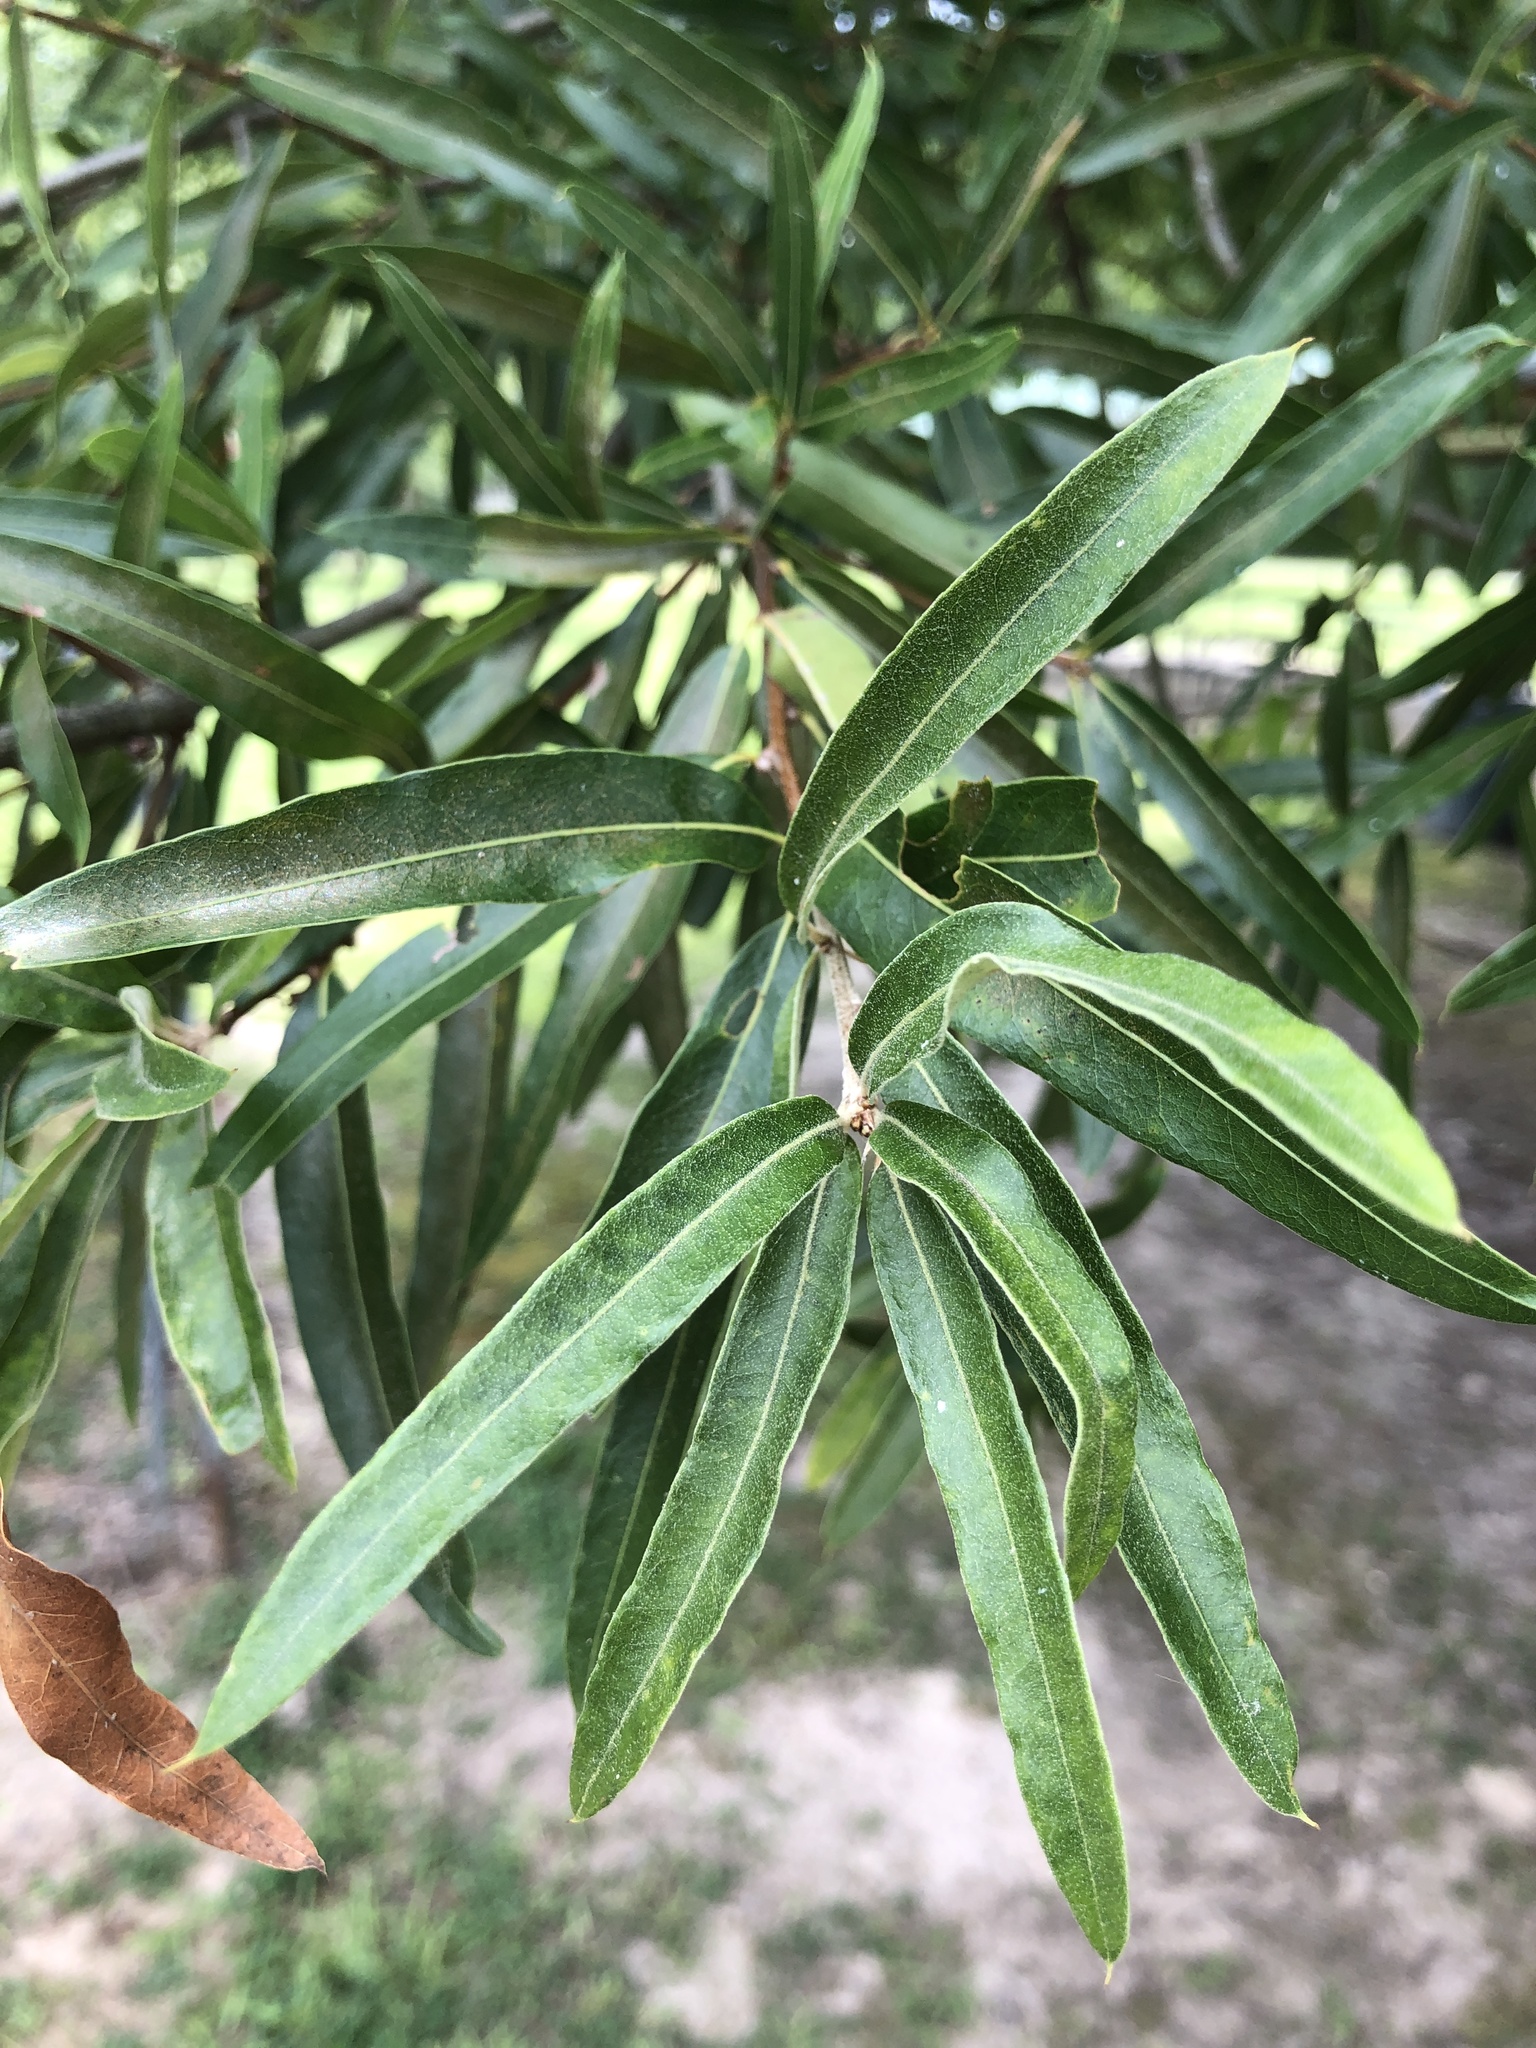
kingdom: Plantae
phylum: Tracheophyta
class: Magnoliopsida
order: Fagales
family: Fagaceae
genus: Quercus
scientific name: Quercus phellos
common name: Willow oak
